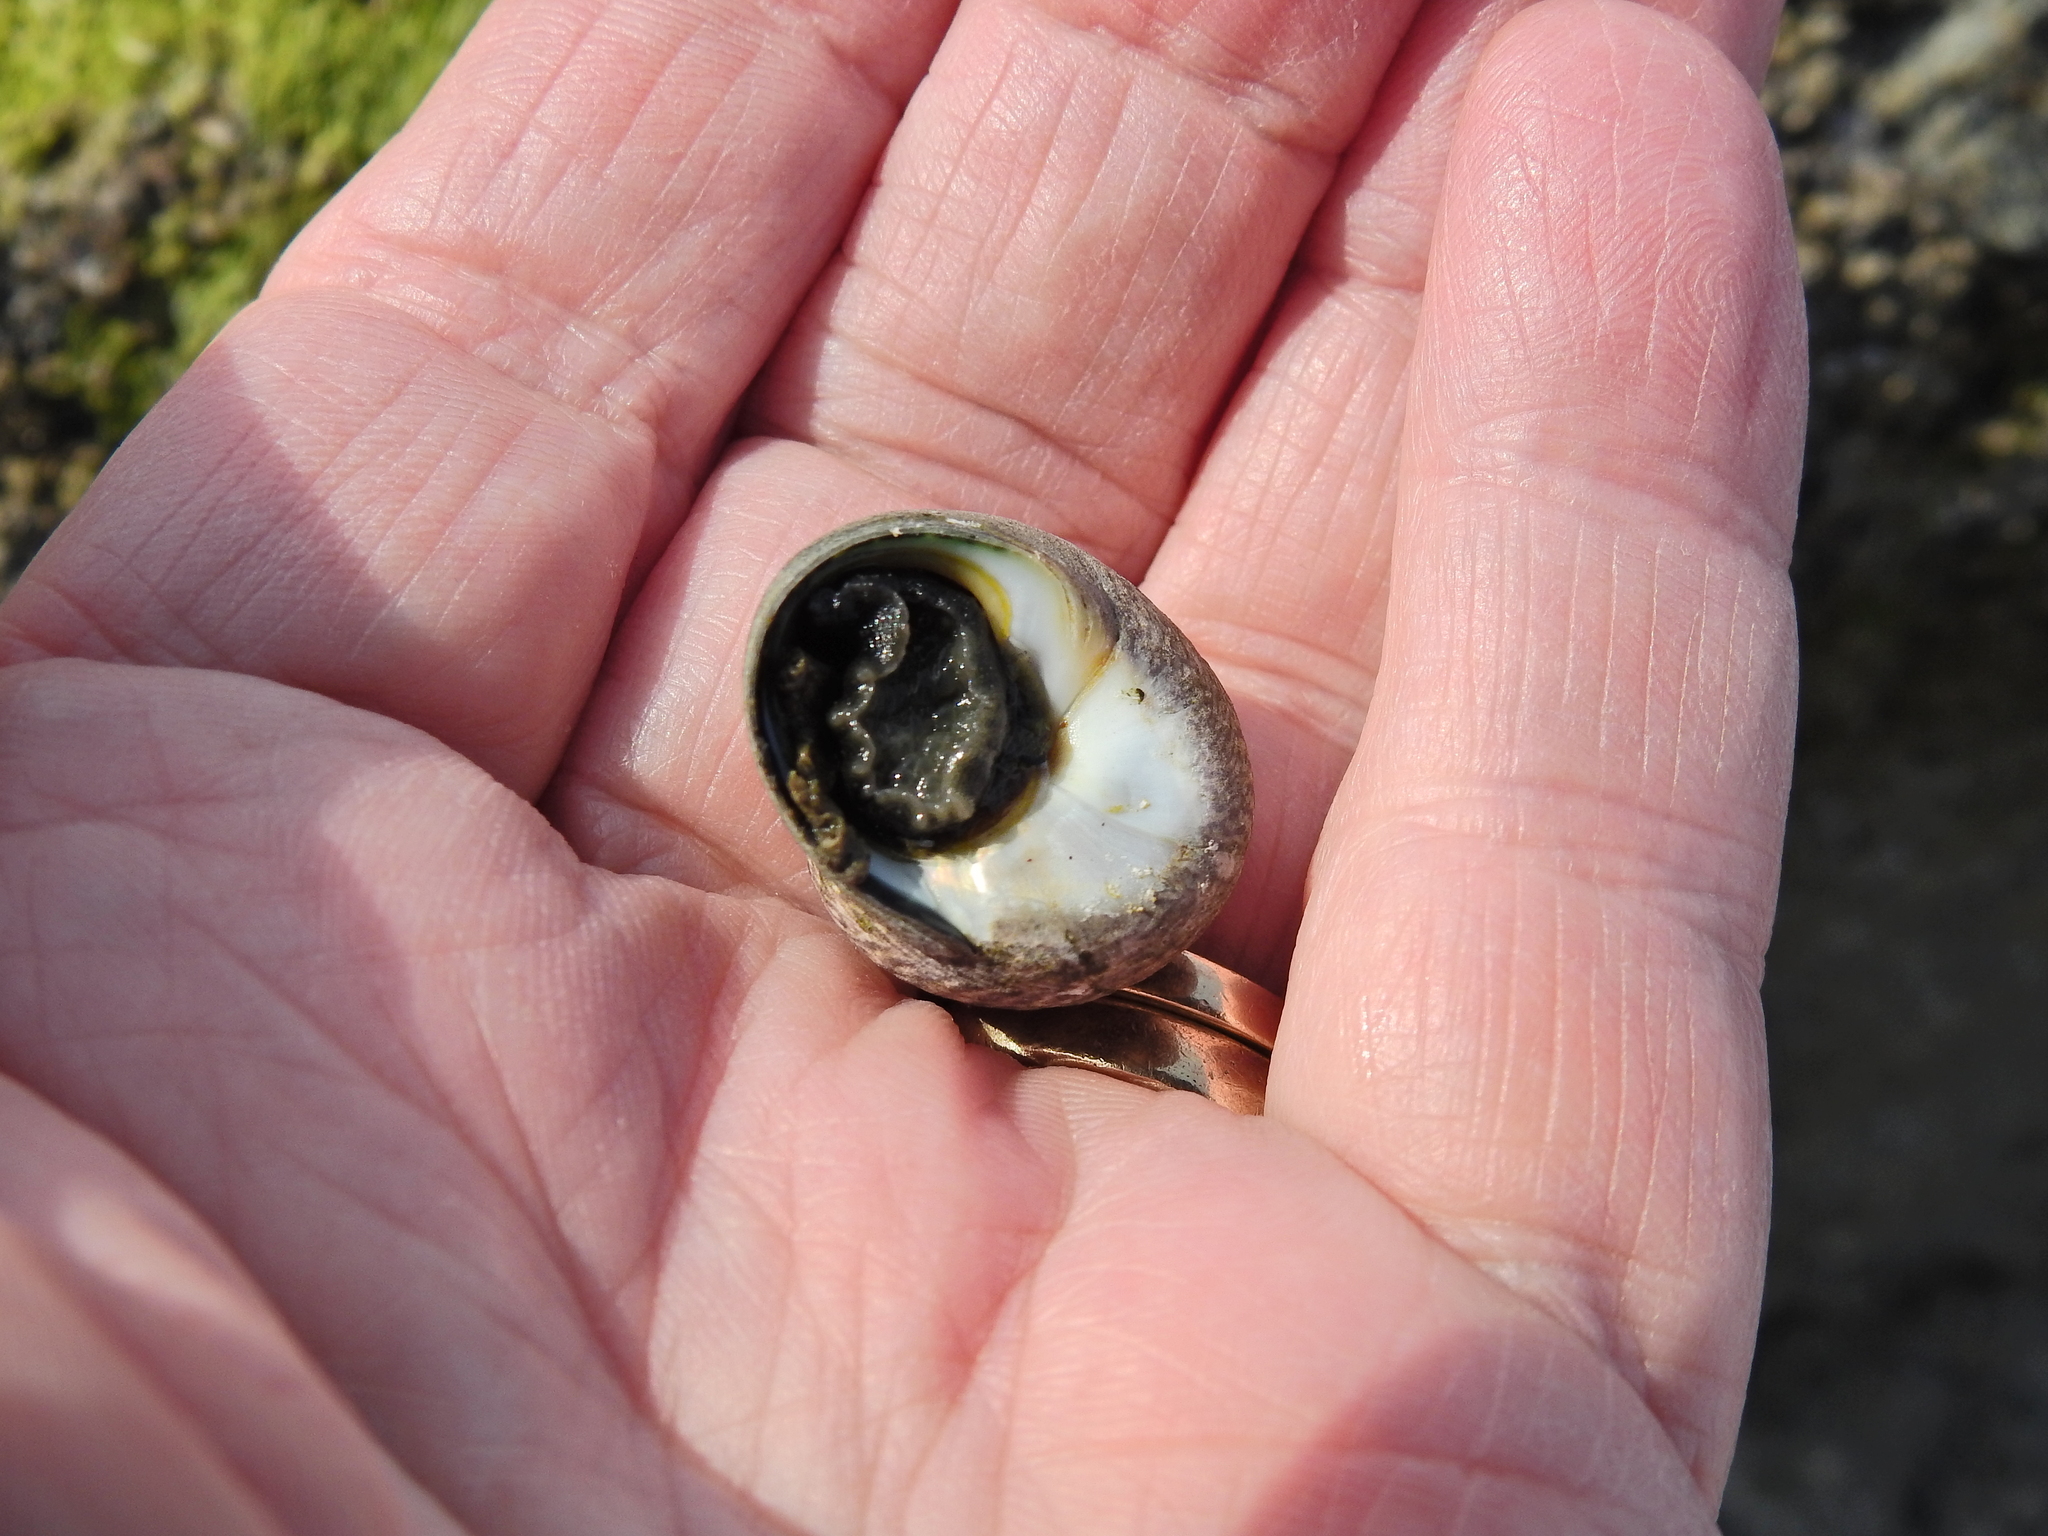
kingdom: Animalia
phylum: Mollusca
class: Gastropoda
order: Trochida
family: Trochidae
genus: Phorcus
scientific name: Phorcus lineatus
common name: Toothed top shell
